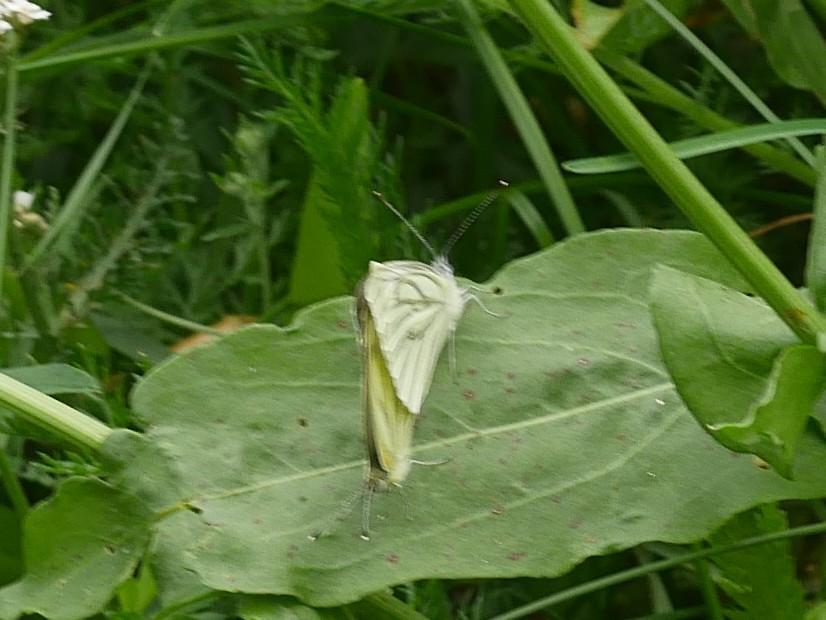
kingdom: Animalia
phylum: Arthropoda
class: Insecta
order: Lepidoptera
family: Pieridae
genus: Pieris
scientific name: Pieris napi
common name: Green-veined white
